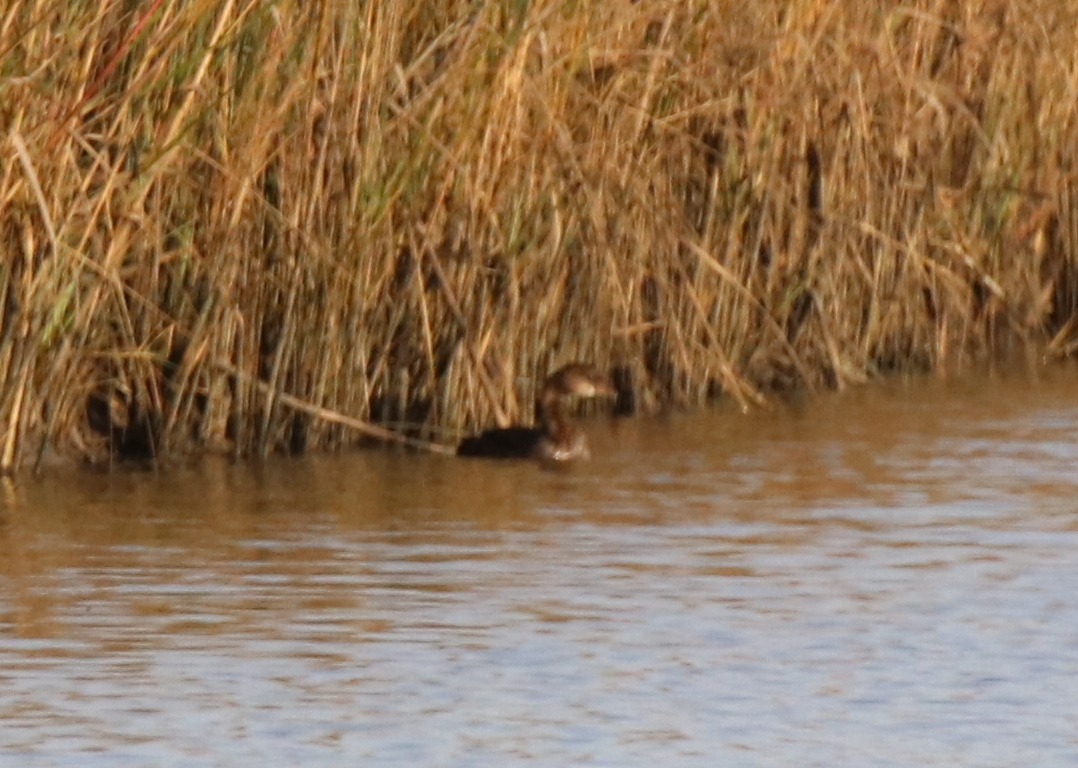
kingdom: Animalia
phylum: Chordata
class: Aves
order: Podicipediformes
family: Podicipedidae
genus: Podilymbus
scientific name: Podilymbus podiceps
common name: Pied-billed grebe
